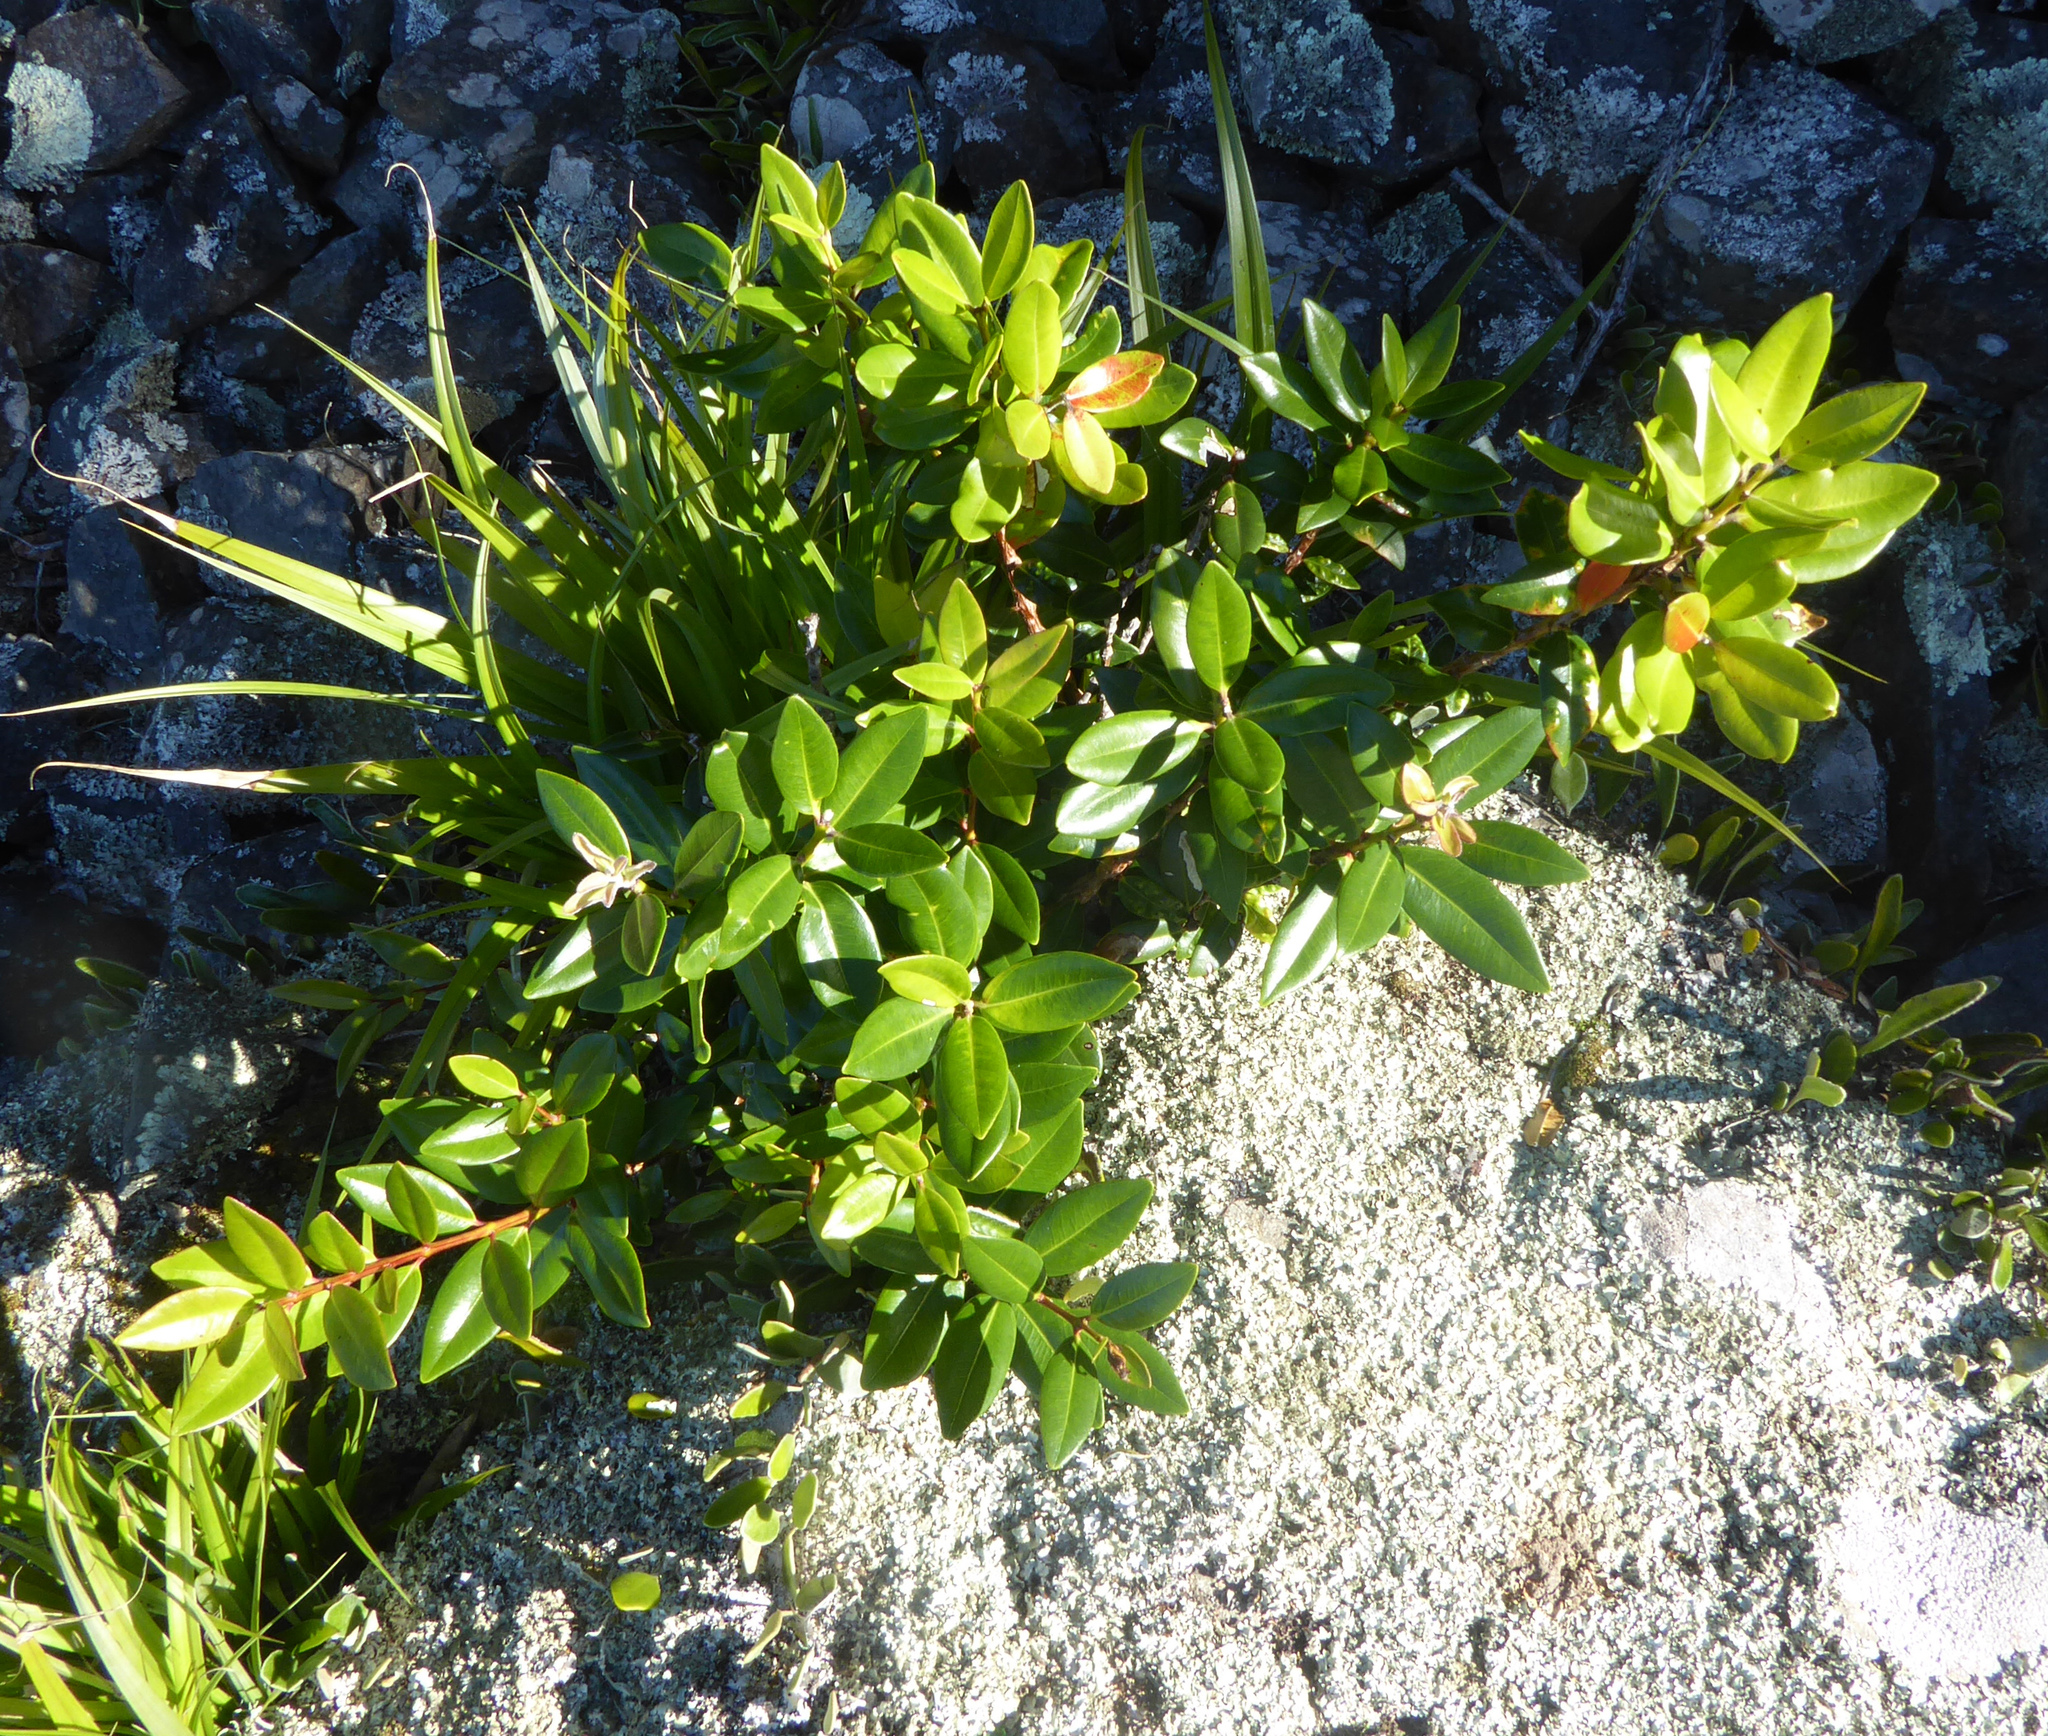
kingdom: Plantae
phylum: Tracheophyta
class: Magnoliopsida
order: Myrtales
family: Myrtaceae
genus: Metrosideros
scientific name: Metrosideros excelsa
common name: New zealand christmastree
